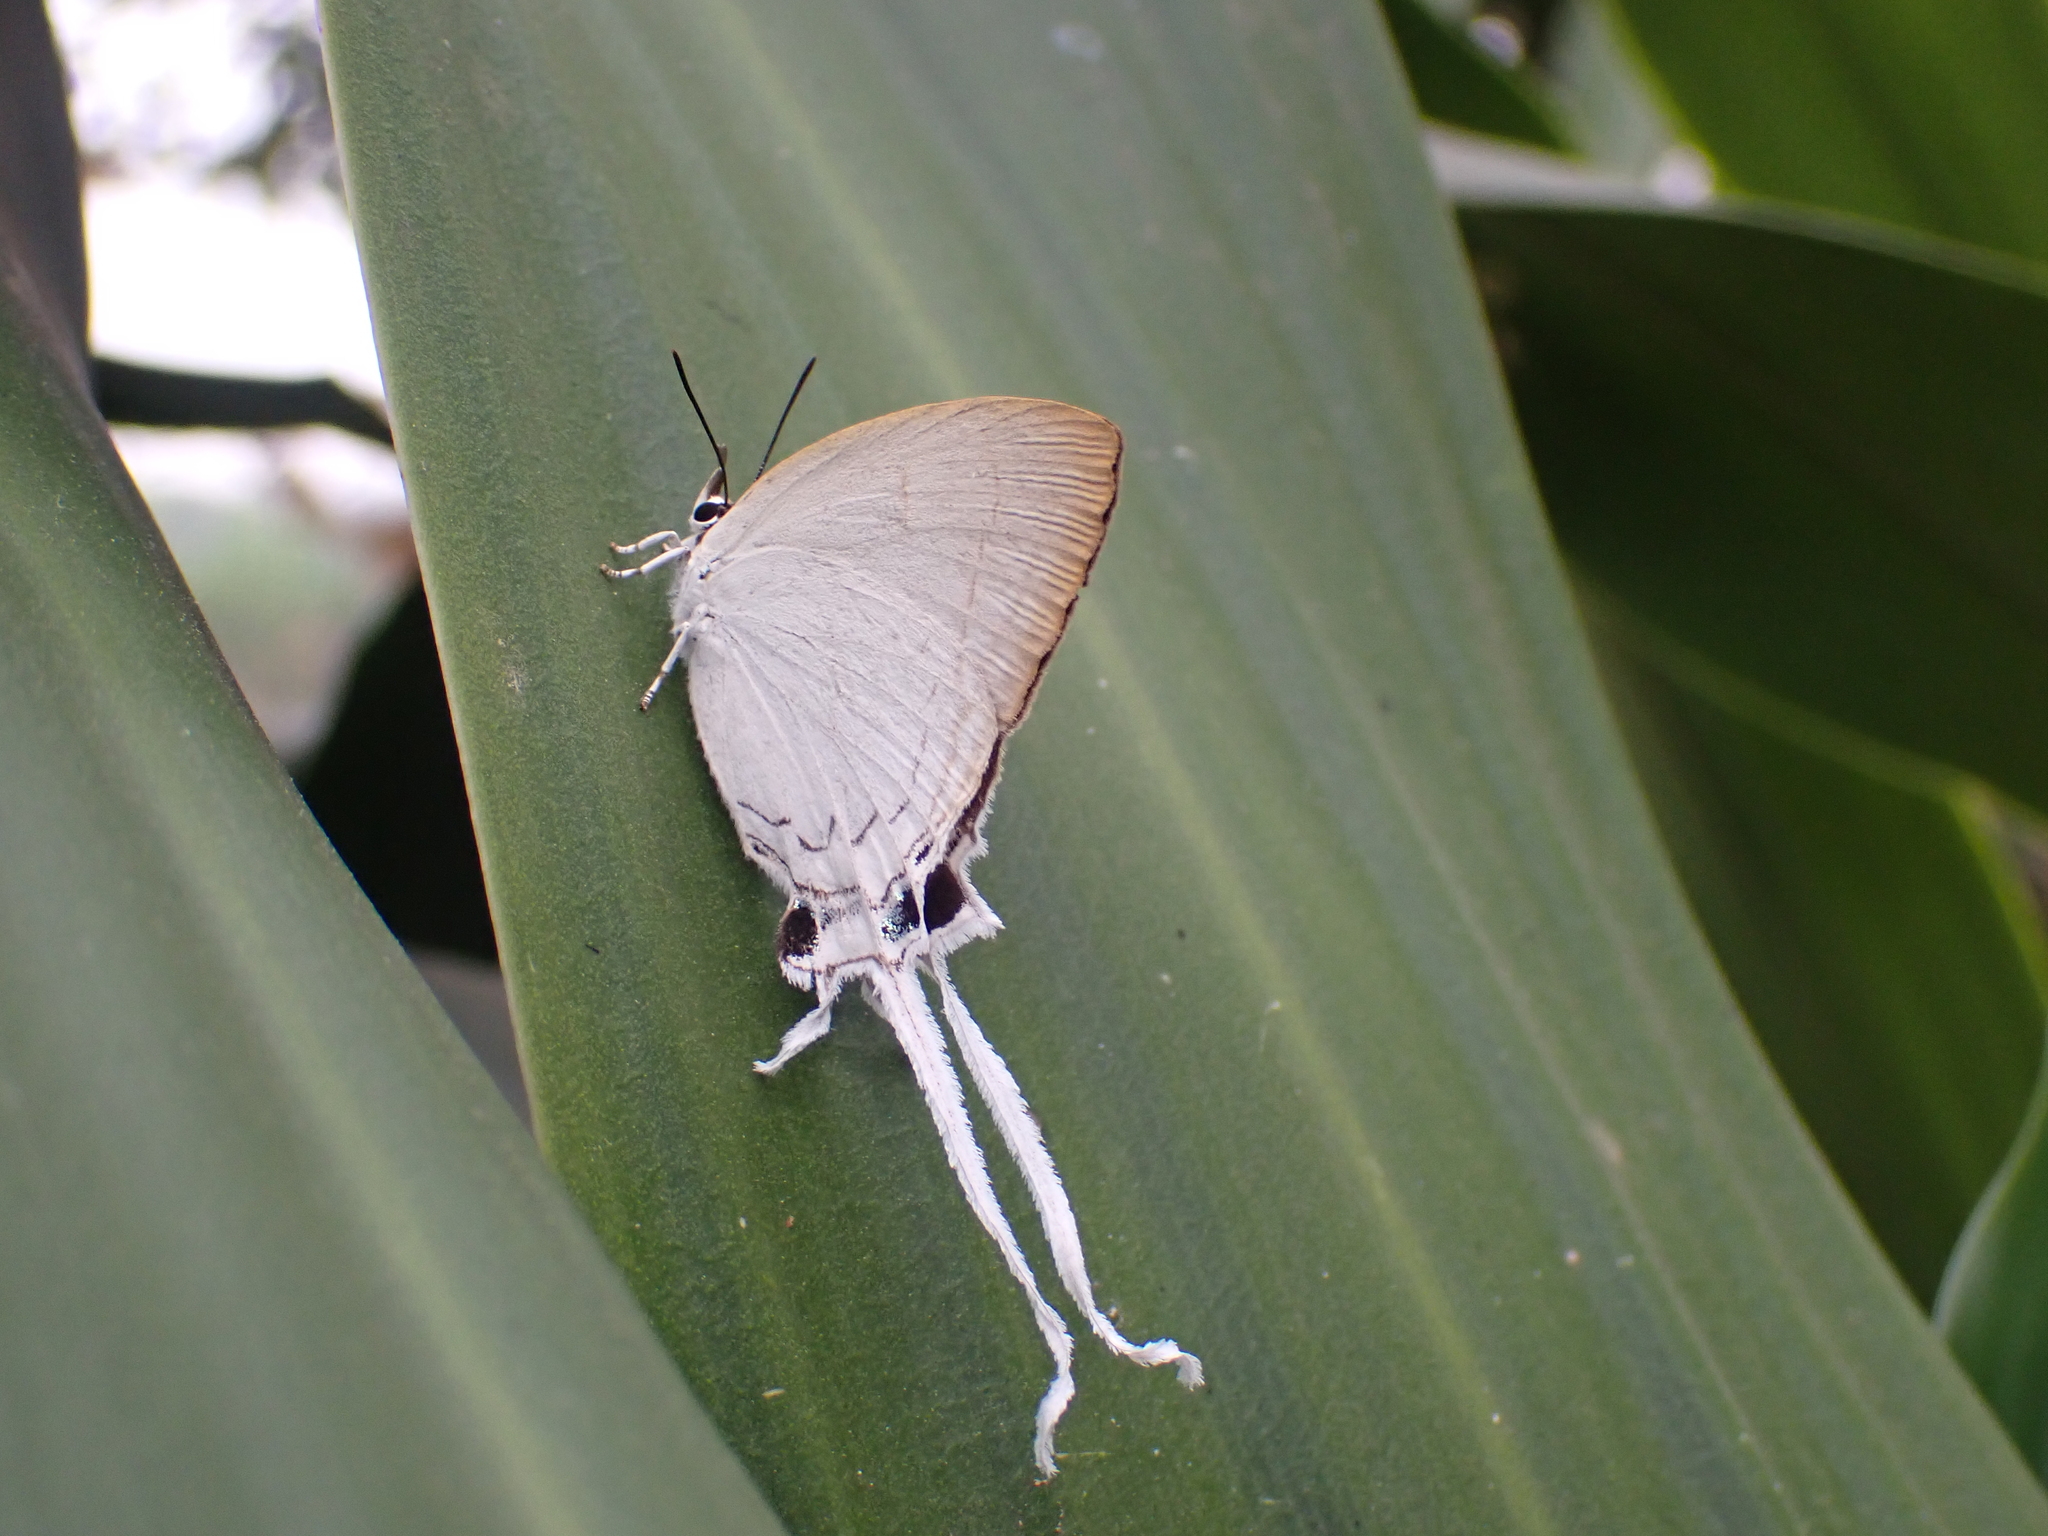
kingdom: Animalia
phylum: Arthropoda
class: Insecta
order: Lepidoptera
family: Lycaenidae
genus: Cheritra
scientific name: Cheritra freja
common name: Common imperial
